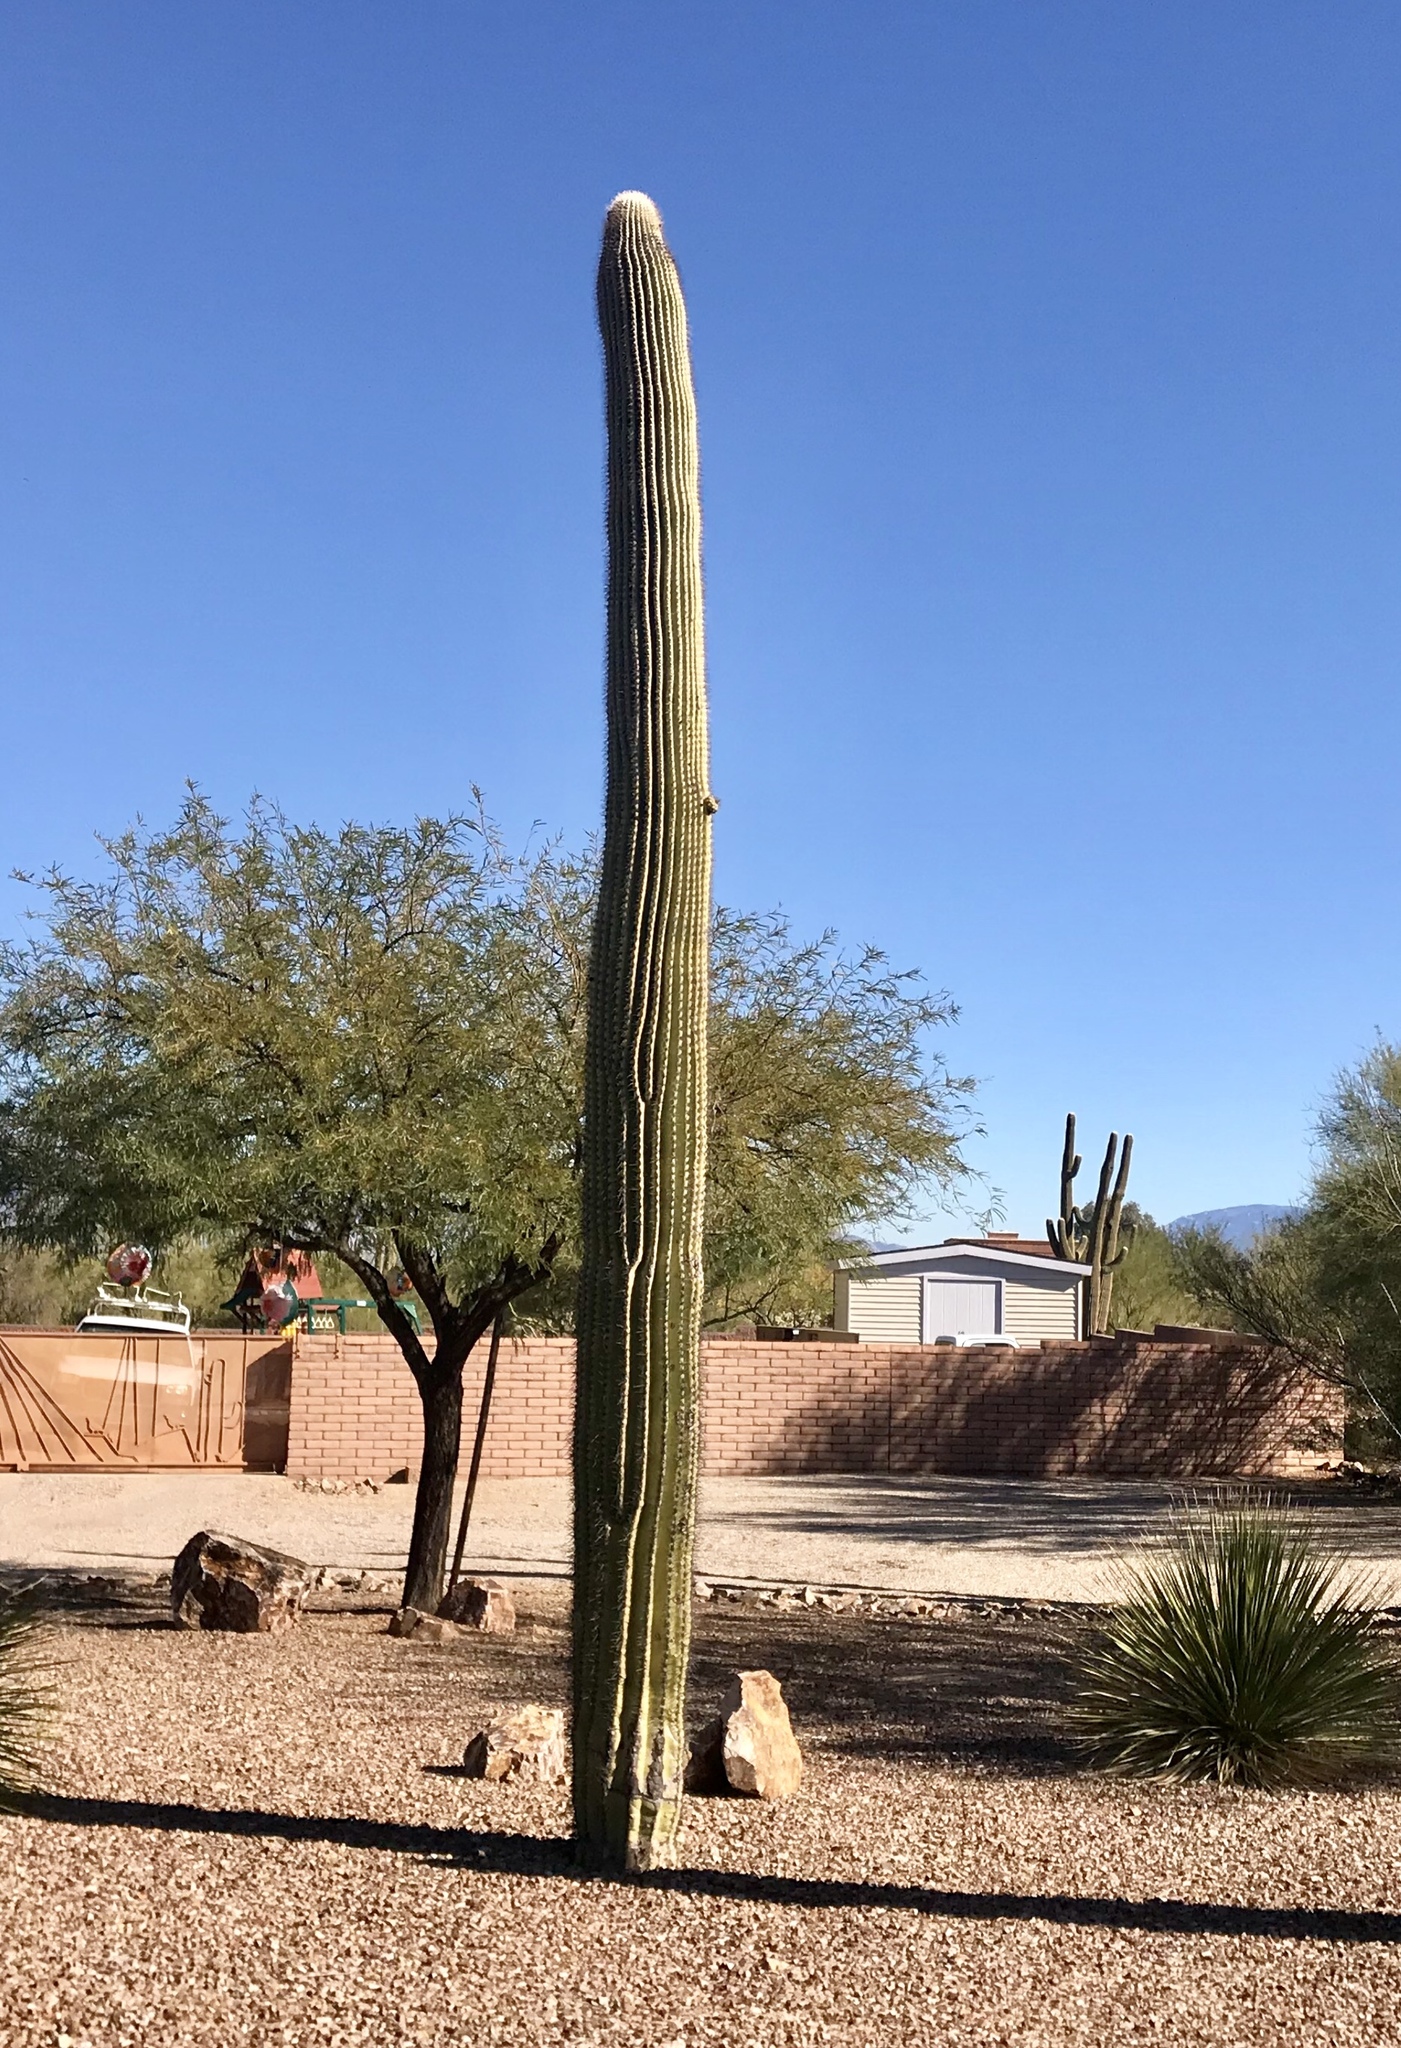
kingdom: Plantae
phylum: Tracheophyta
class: Magnoliopsida
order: Caryophyllales
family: Cactaceae
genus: Carnegiea
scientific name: Carnegiea gigantea
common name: Saguaro
